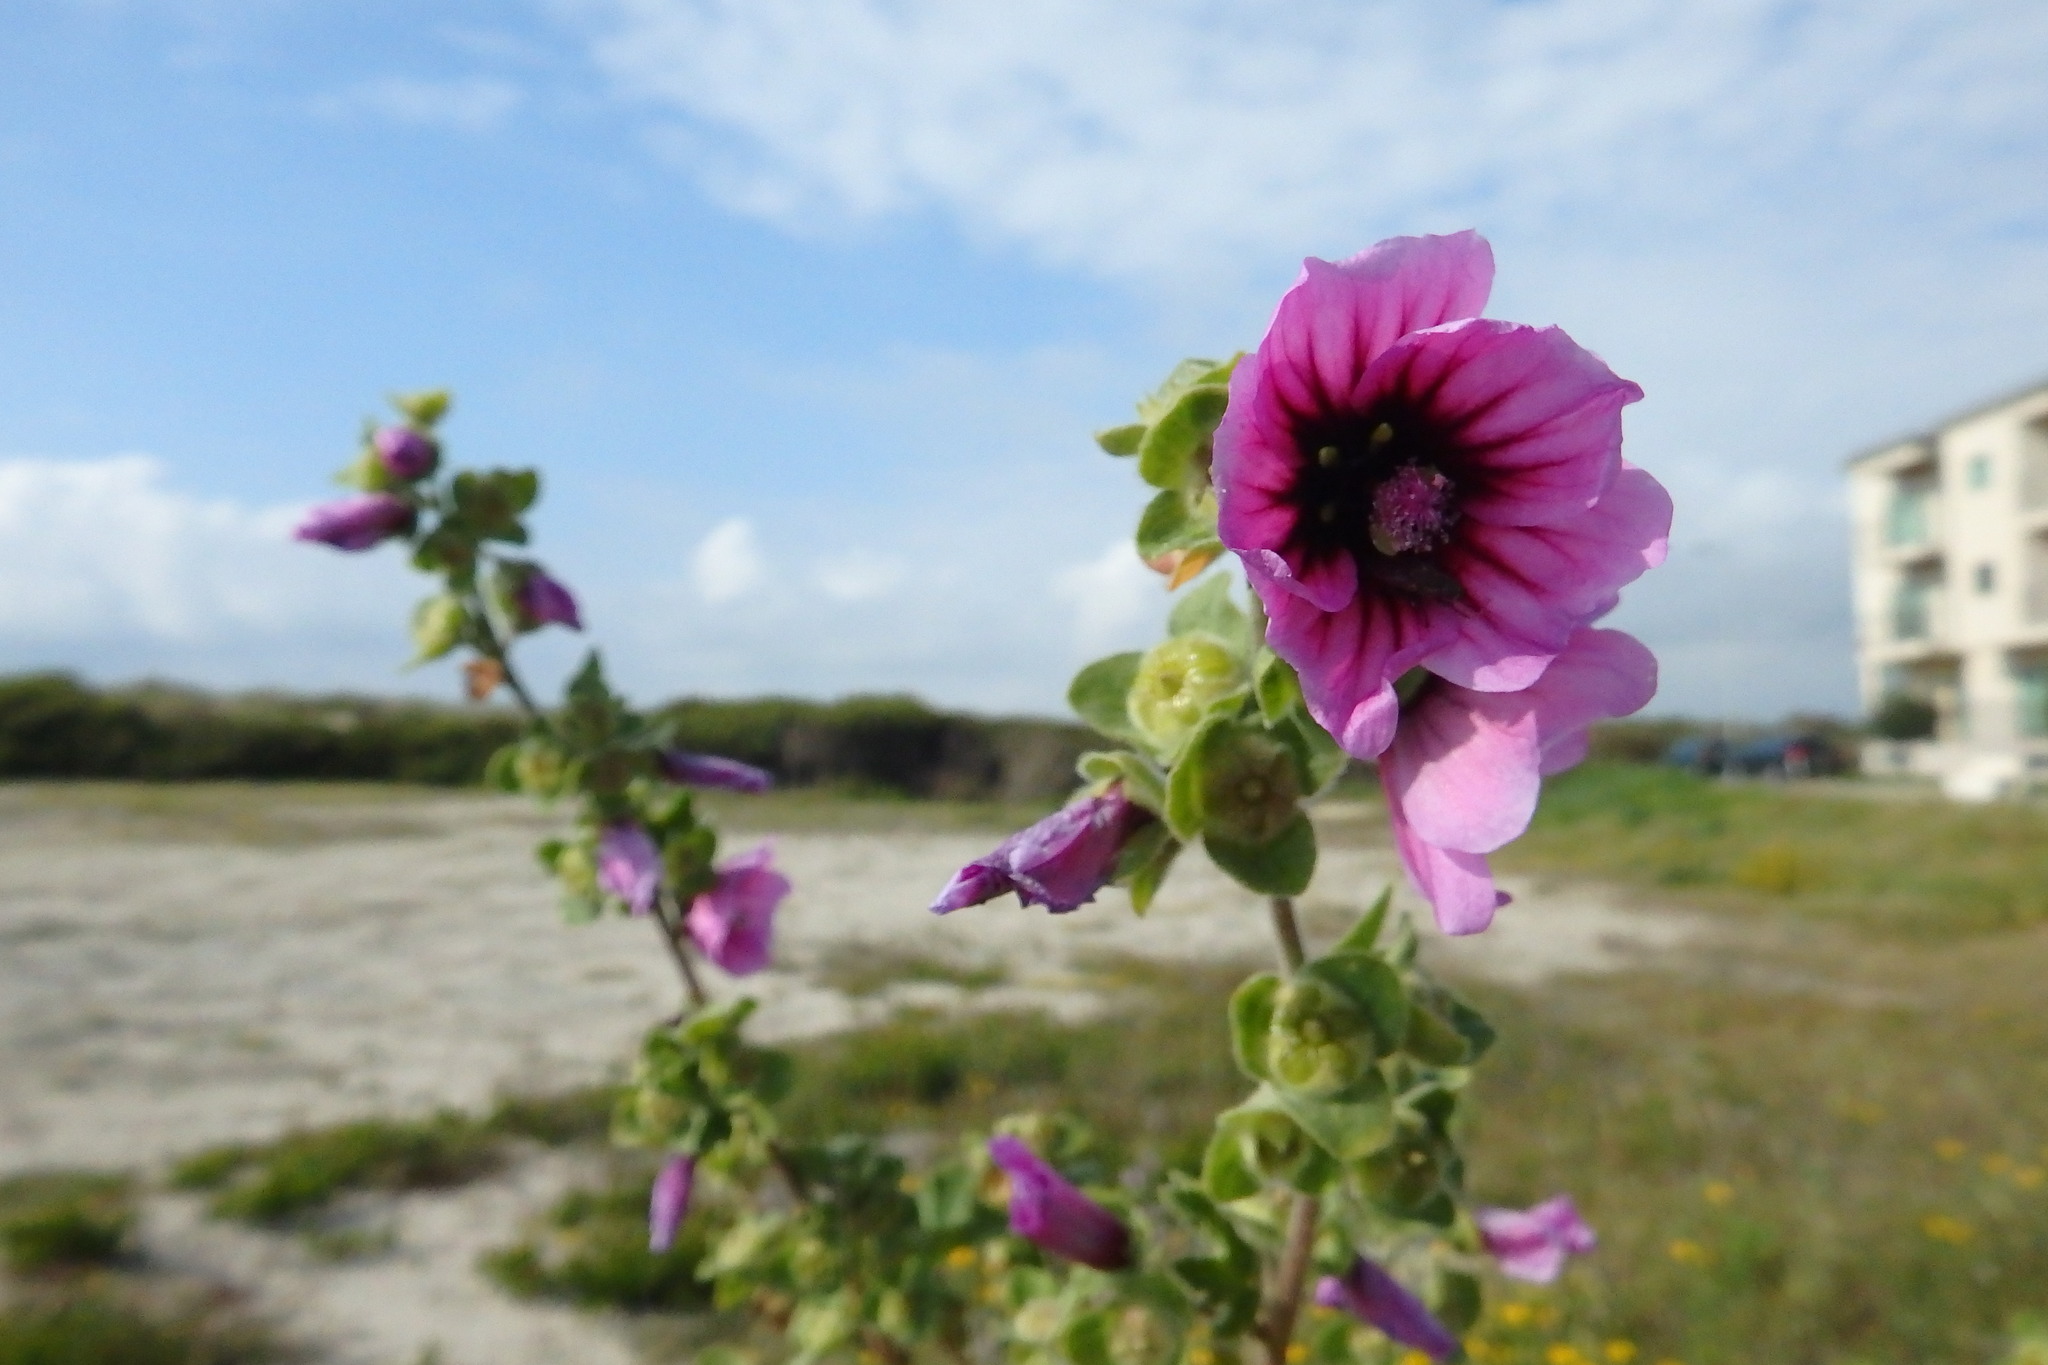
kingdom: Plantae
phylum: Tracheophyta
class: Magnoliopsida
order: Malvales
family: Malvaceae
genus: Malva
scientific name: Malva arborea
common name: Tree mallow
